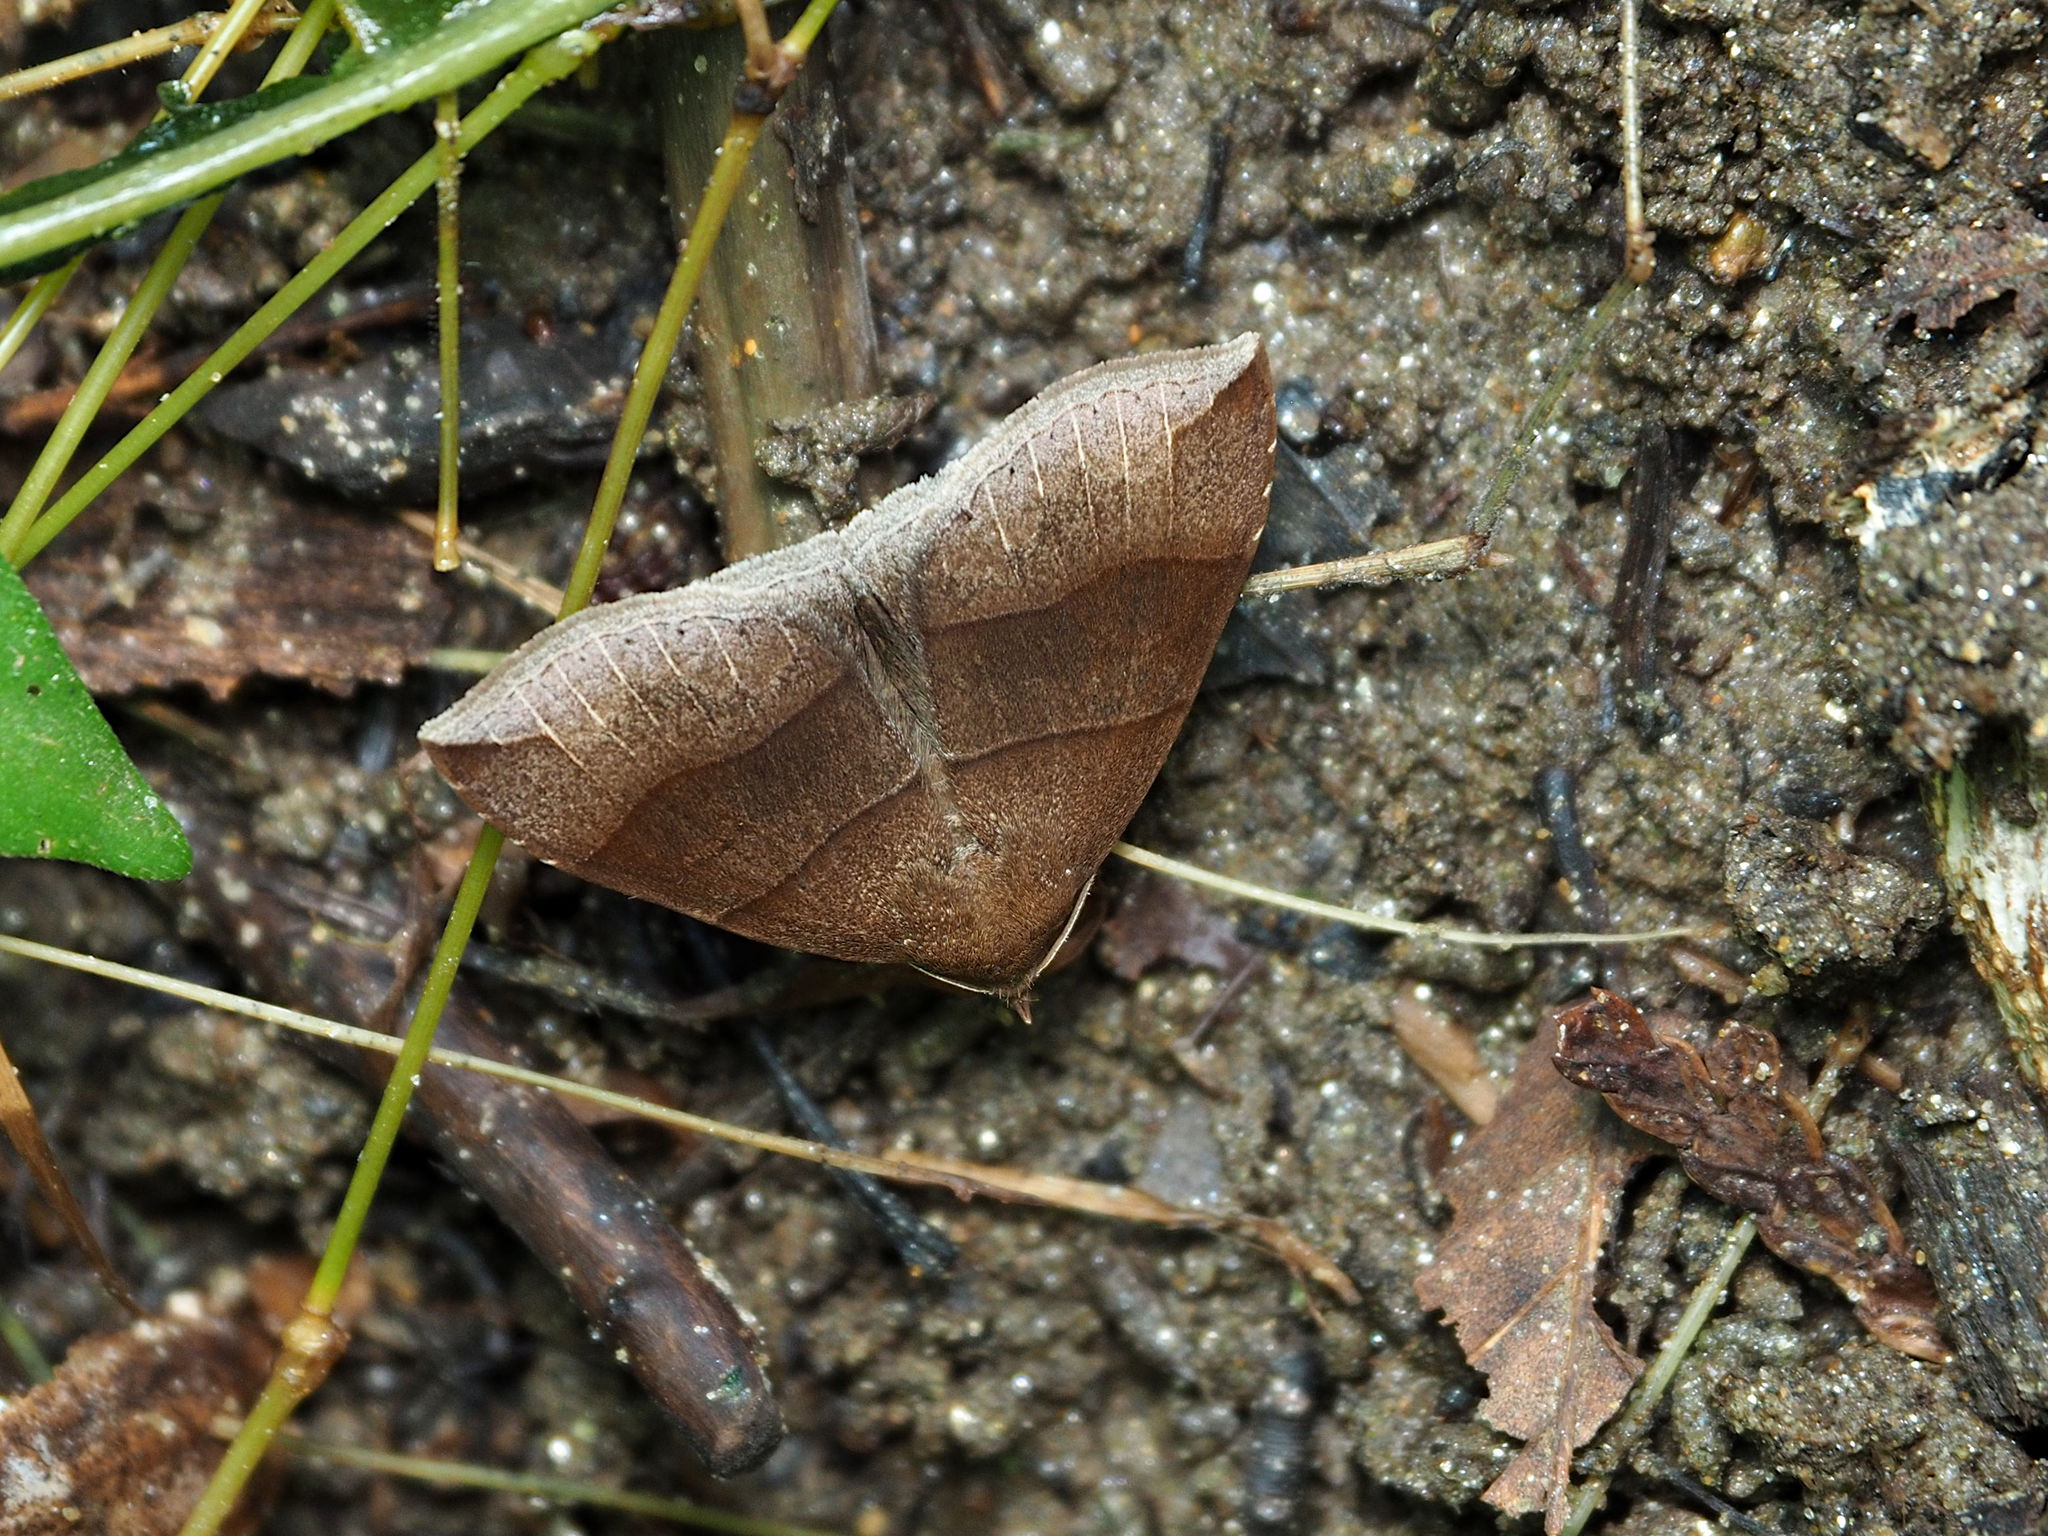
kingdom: Animalia
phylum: Arthropoda
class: Insecta
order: Lepidoptera
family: Erebidae
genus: Parallelia
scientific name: Parallelia bistriaris
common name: Maple looper moth
